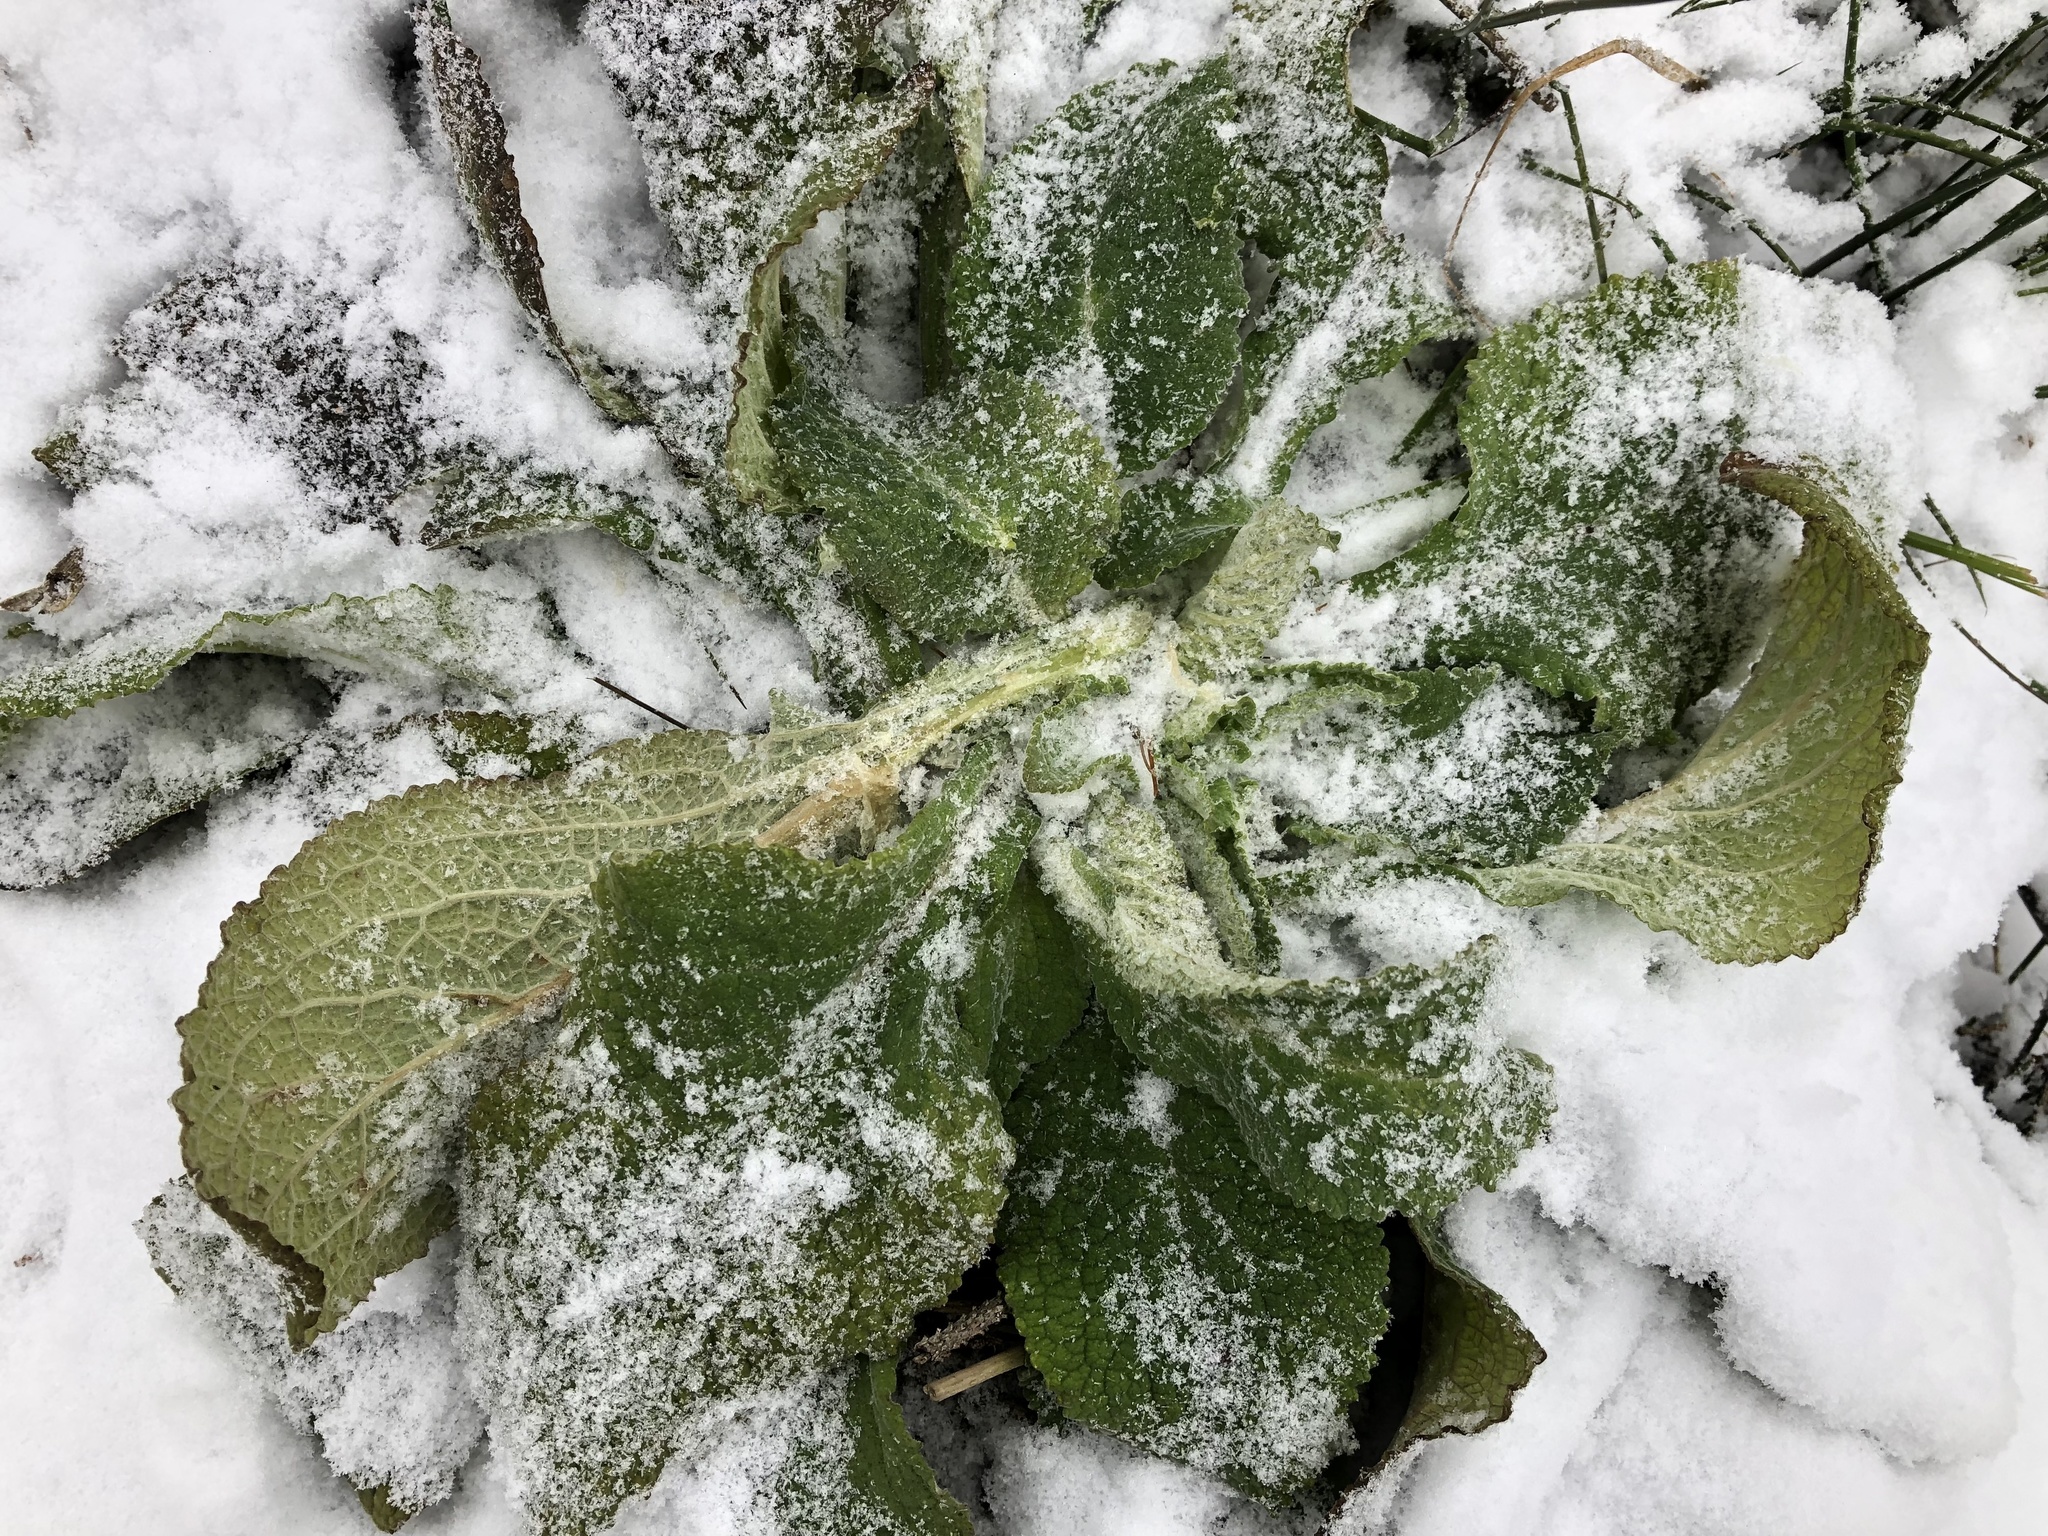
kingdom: Plantae
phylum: Tracheophyta
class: Magnoliopsida
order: Lamiales
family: Plantaginaceae
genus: Digitalis
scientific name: Digitalis purpurea
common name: Foxglove
